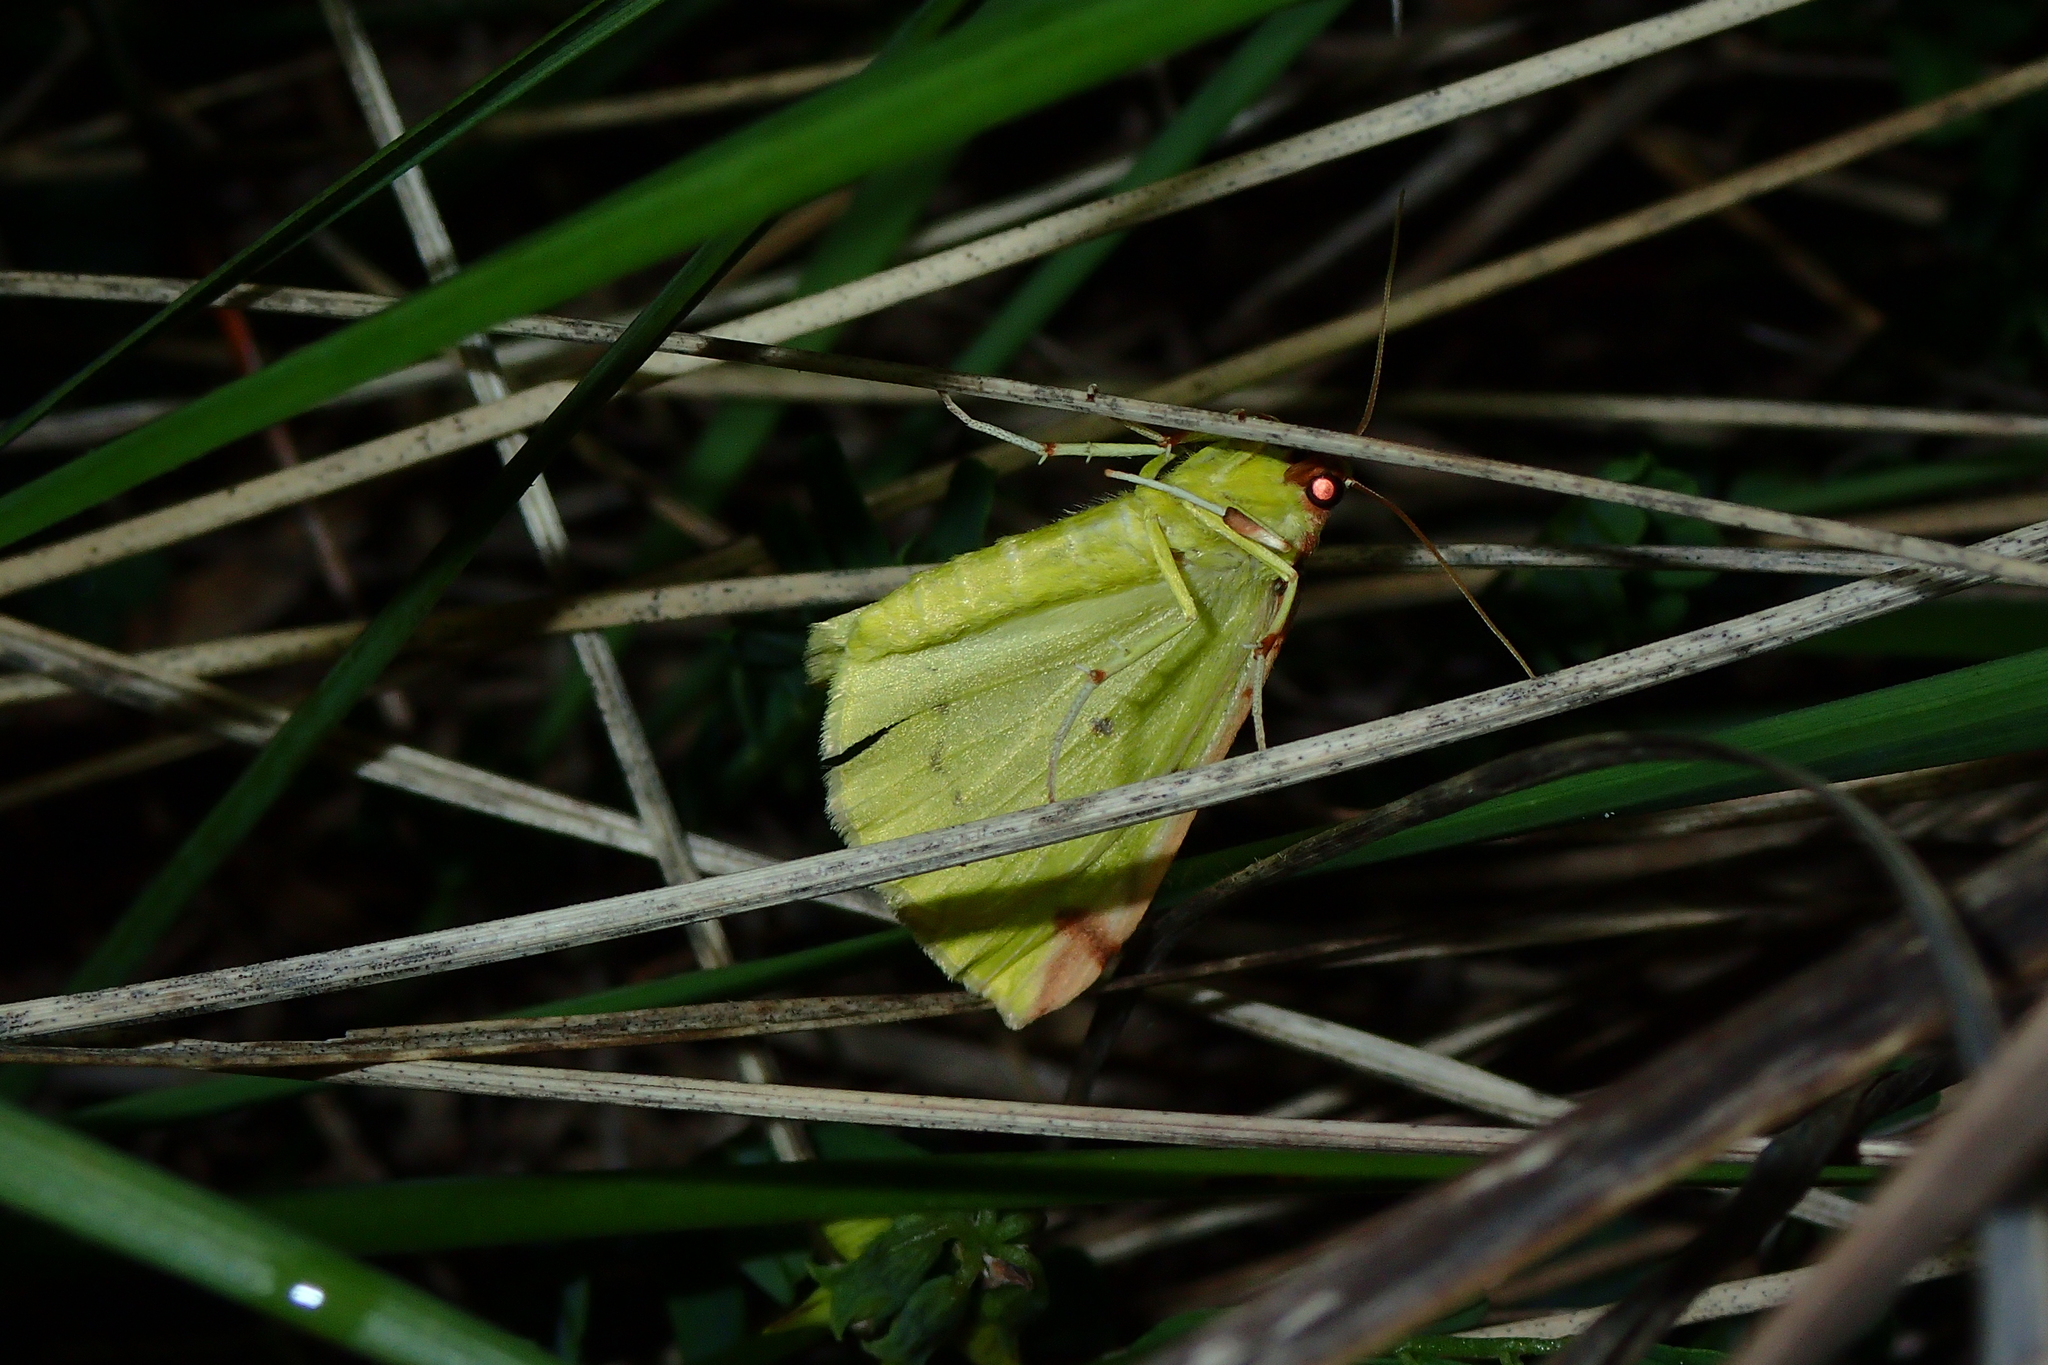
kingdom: Animalia
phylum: Arthropoda
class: Insecta
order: Lepidoptera
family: Geometridae
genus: Opisthograptis
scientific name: Opisthograptis luteolata
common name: Brimstone moth
